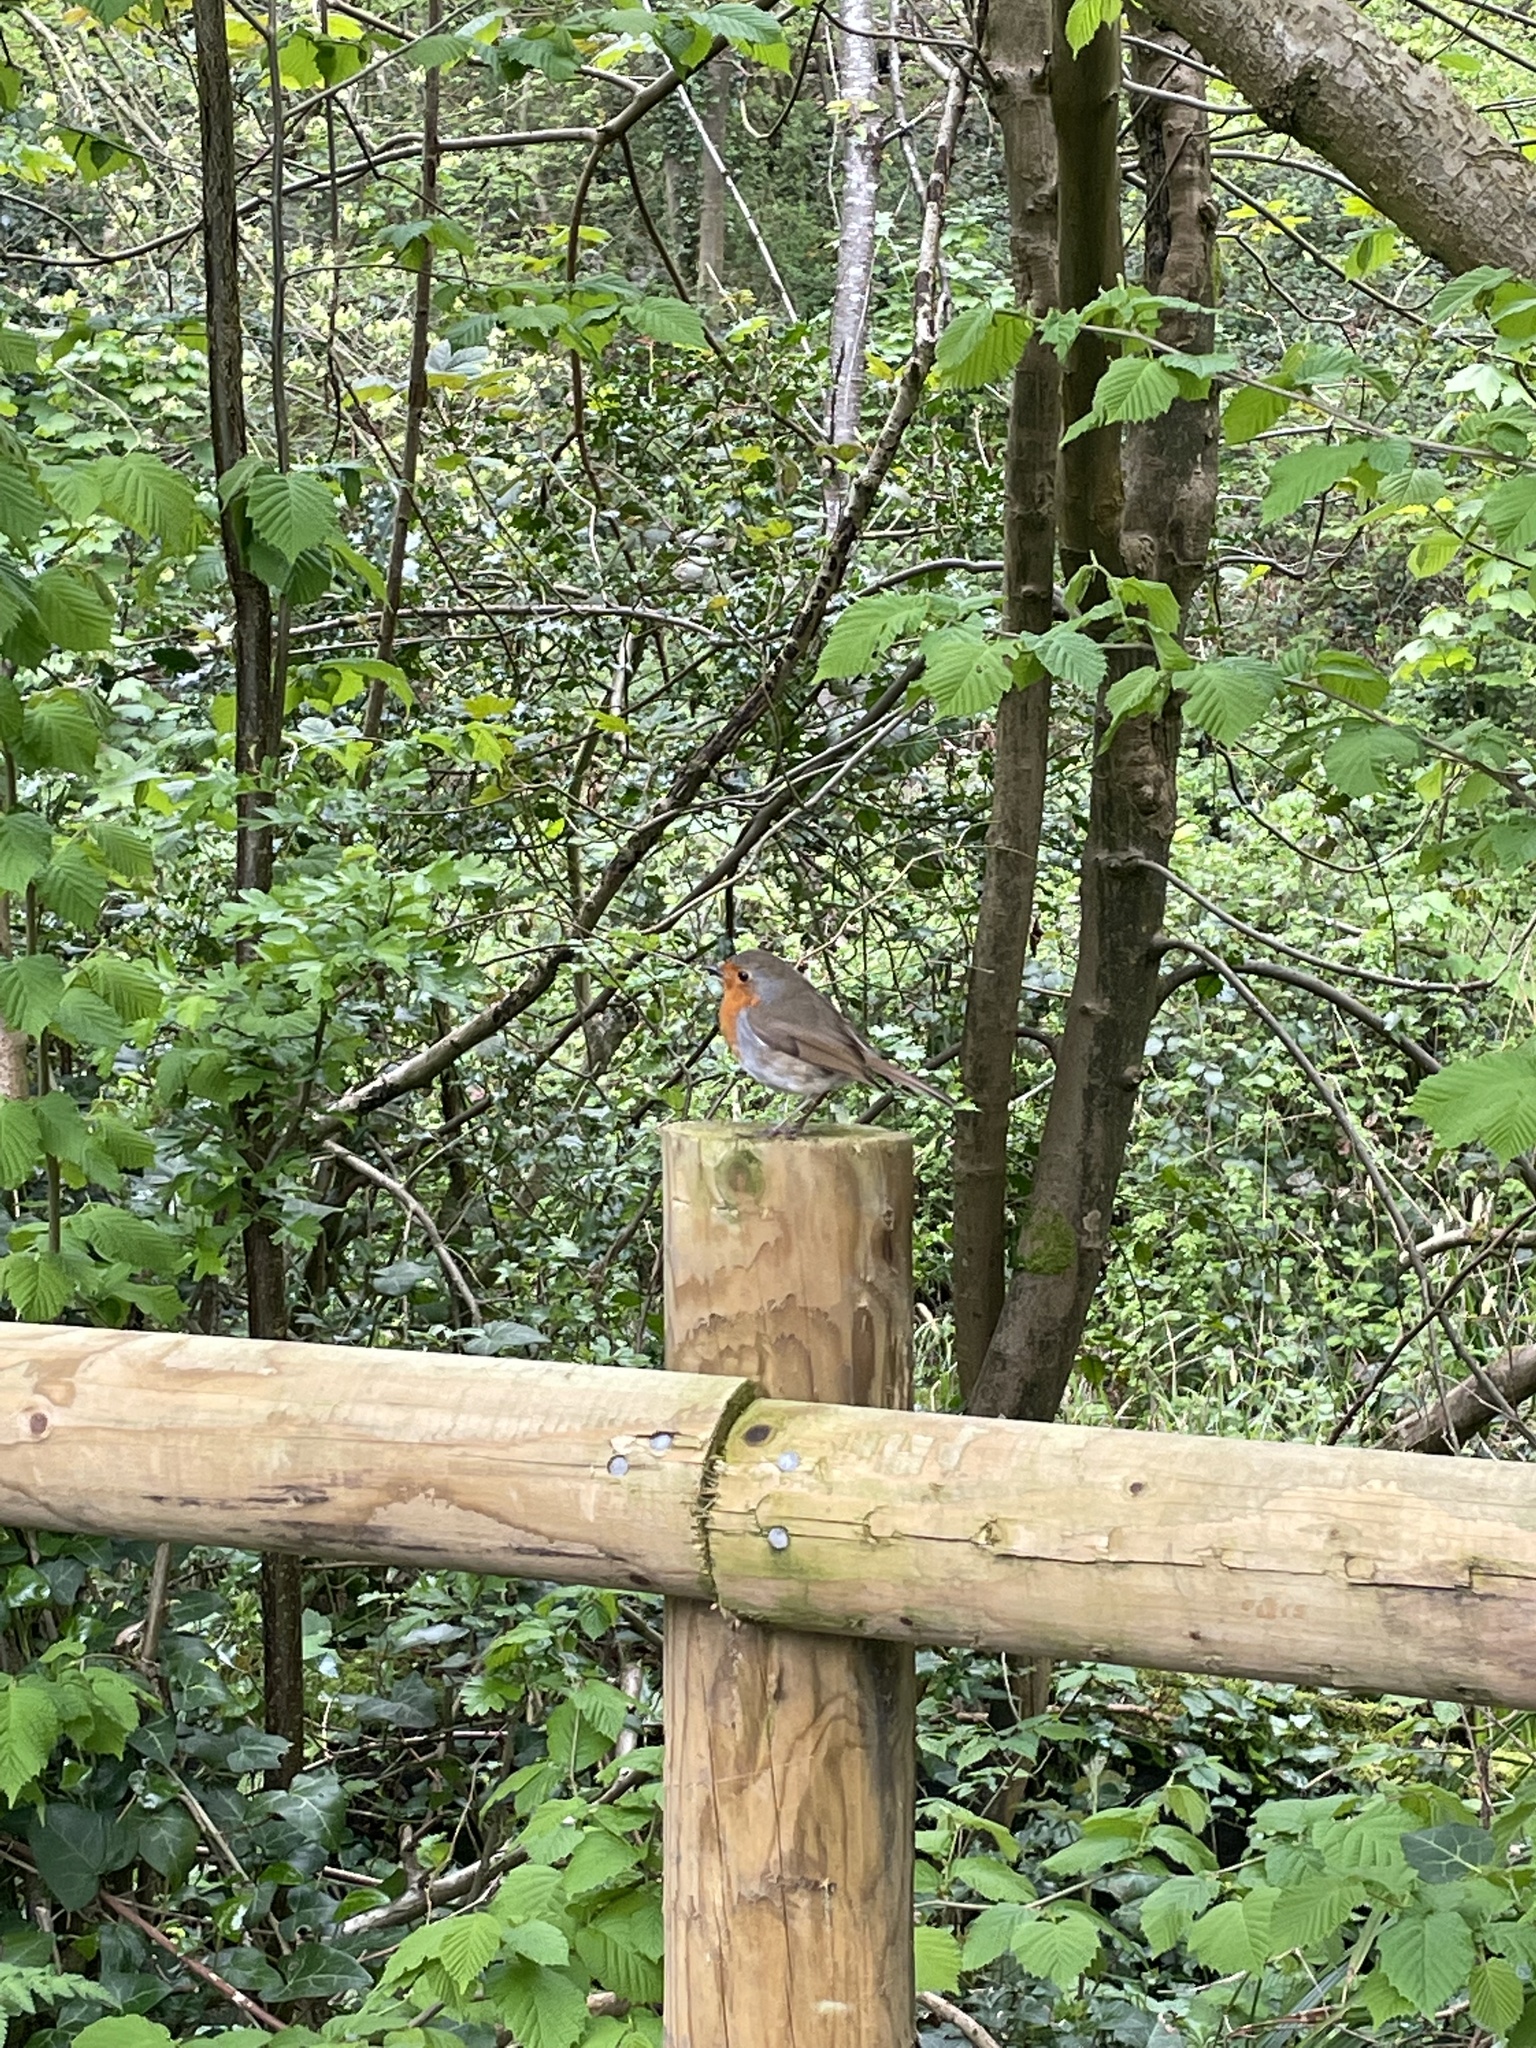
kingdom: Animalia
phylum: Chordata
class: Aves
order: Passeriformes
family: Muscicapidae
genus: Erithacus
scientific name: Erithacus rubecula
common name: European robin
